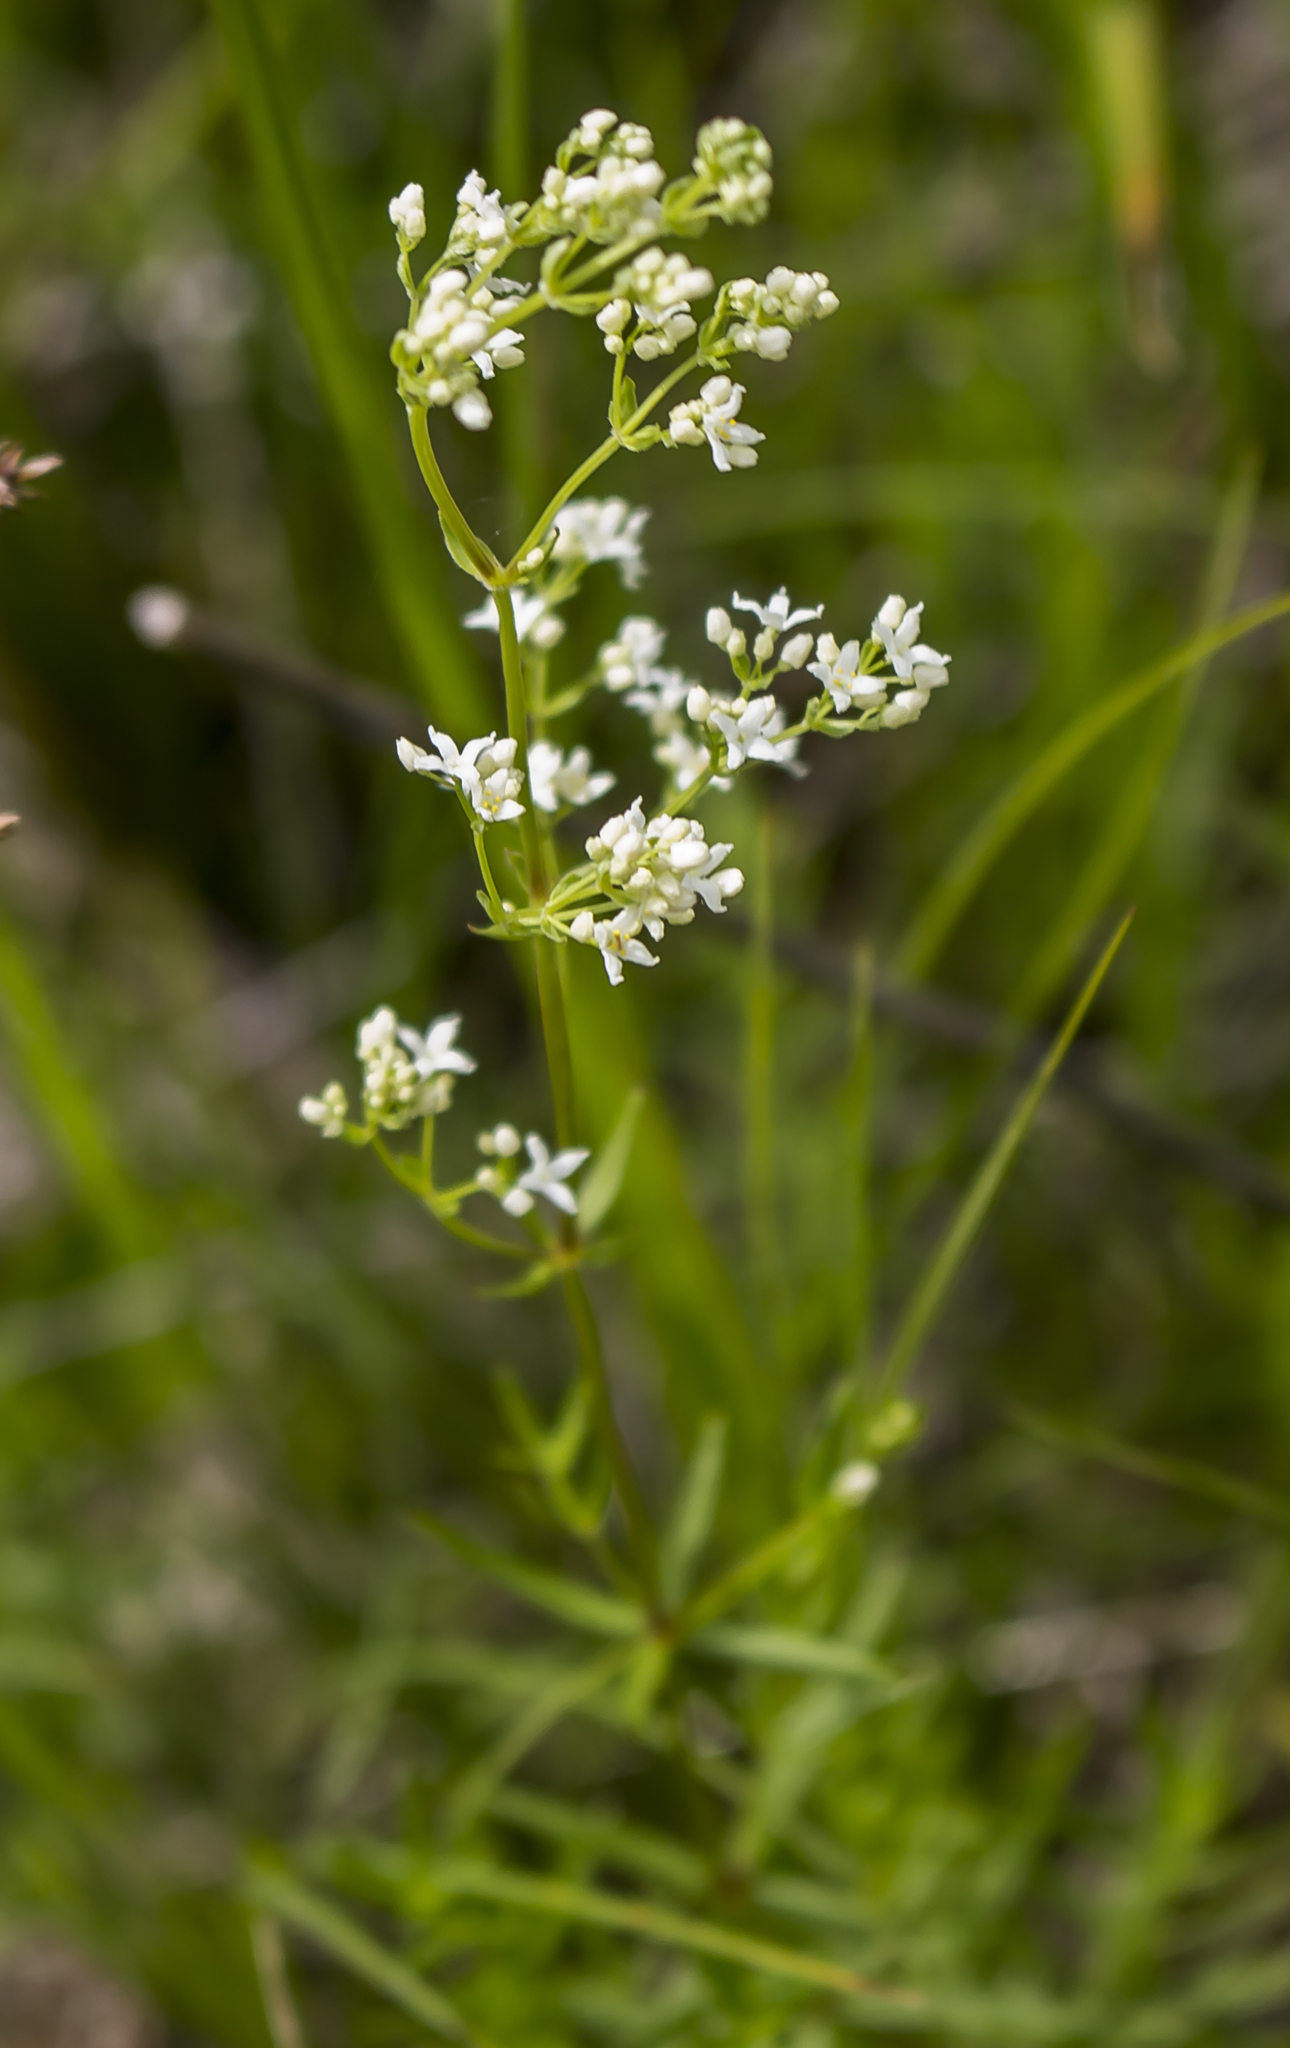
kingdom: Plantae
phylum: Tracheophyta
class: Magnoliopsida
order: Gentianales
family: Rubiaceae
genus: Galium
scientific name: Galium boreale
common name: Northern bedstraw
